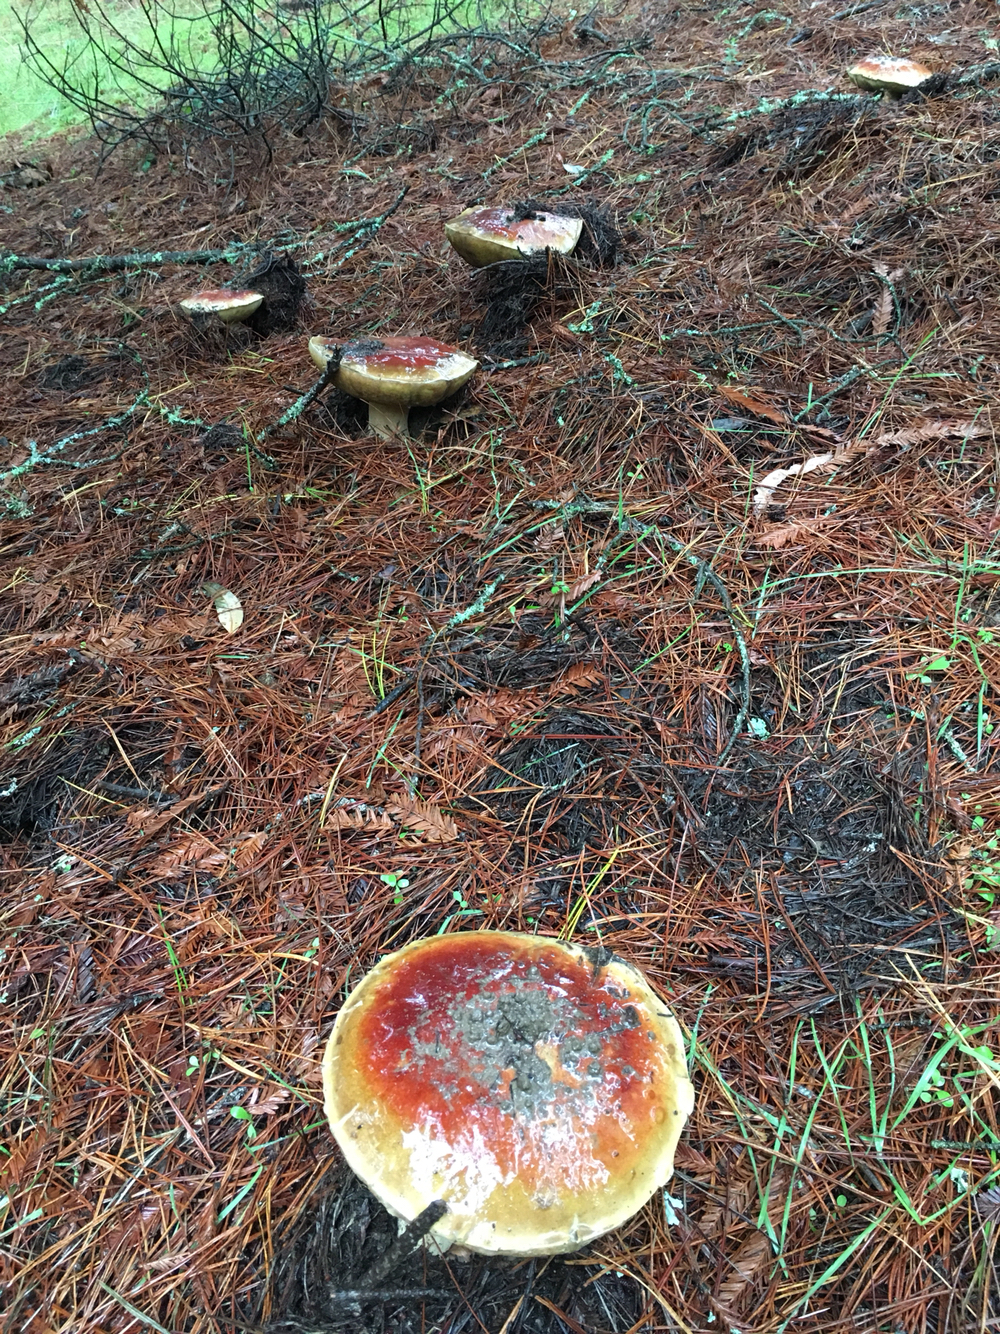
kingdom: Fungi
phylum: Basidiomycota
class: Agaricomycetes
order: Boletales
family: Boletaceae
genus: Boletus
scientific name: Boletus edulis
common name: Cep
